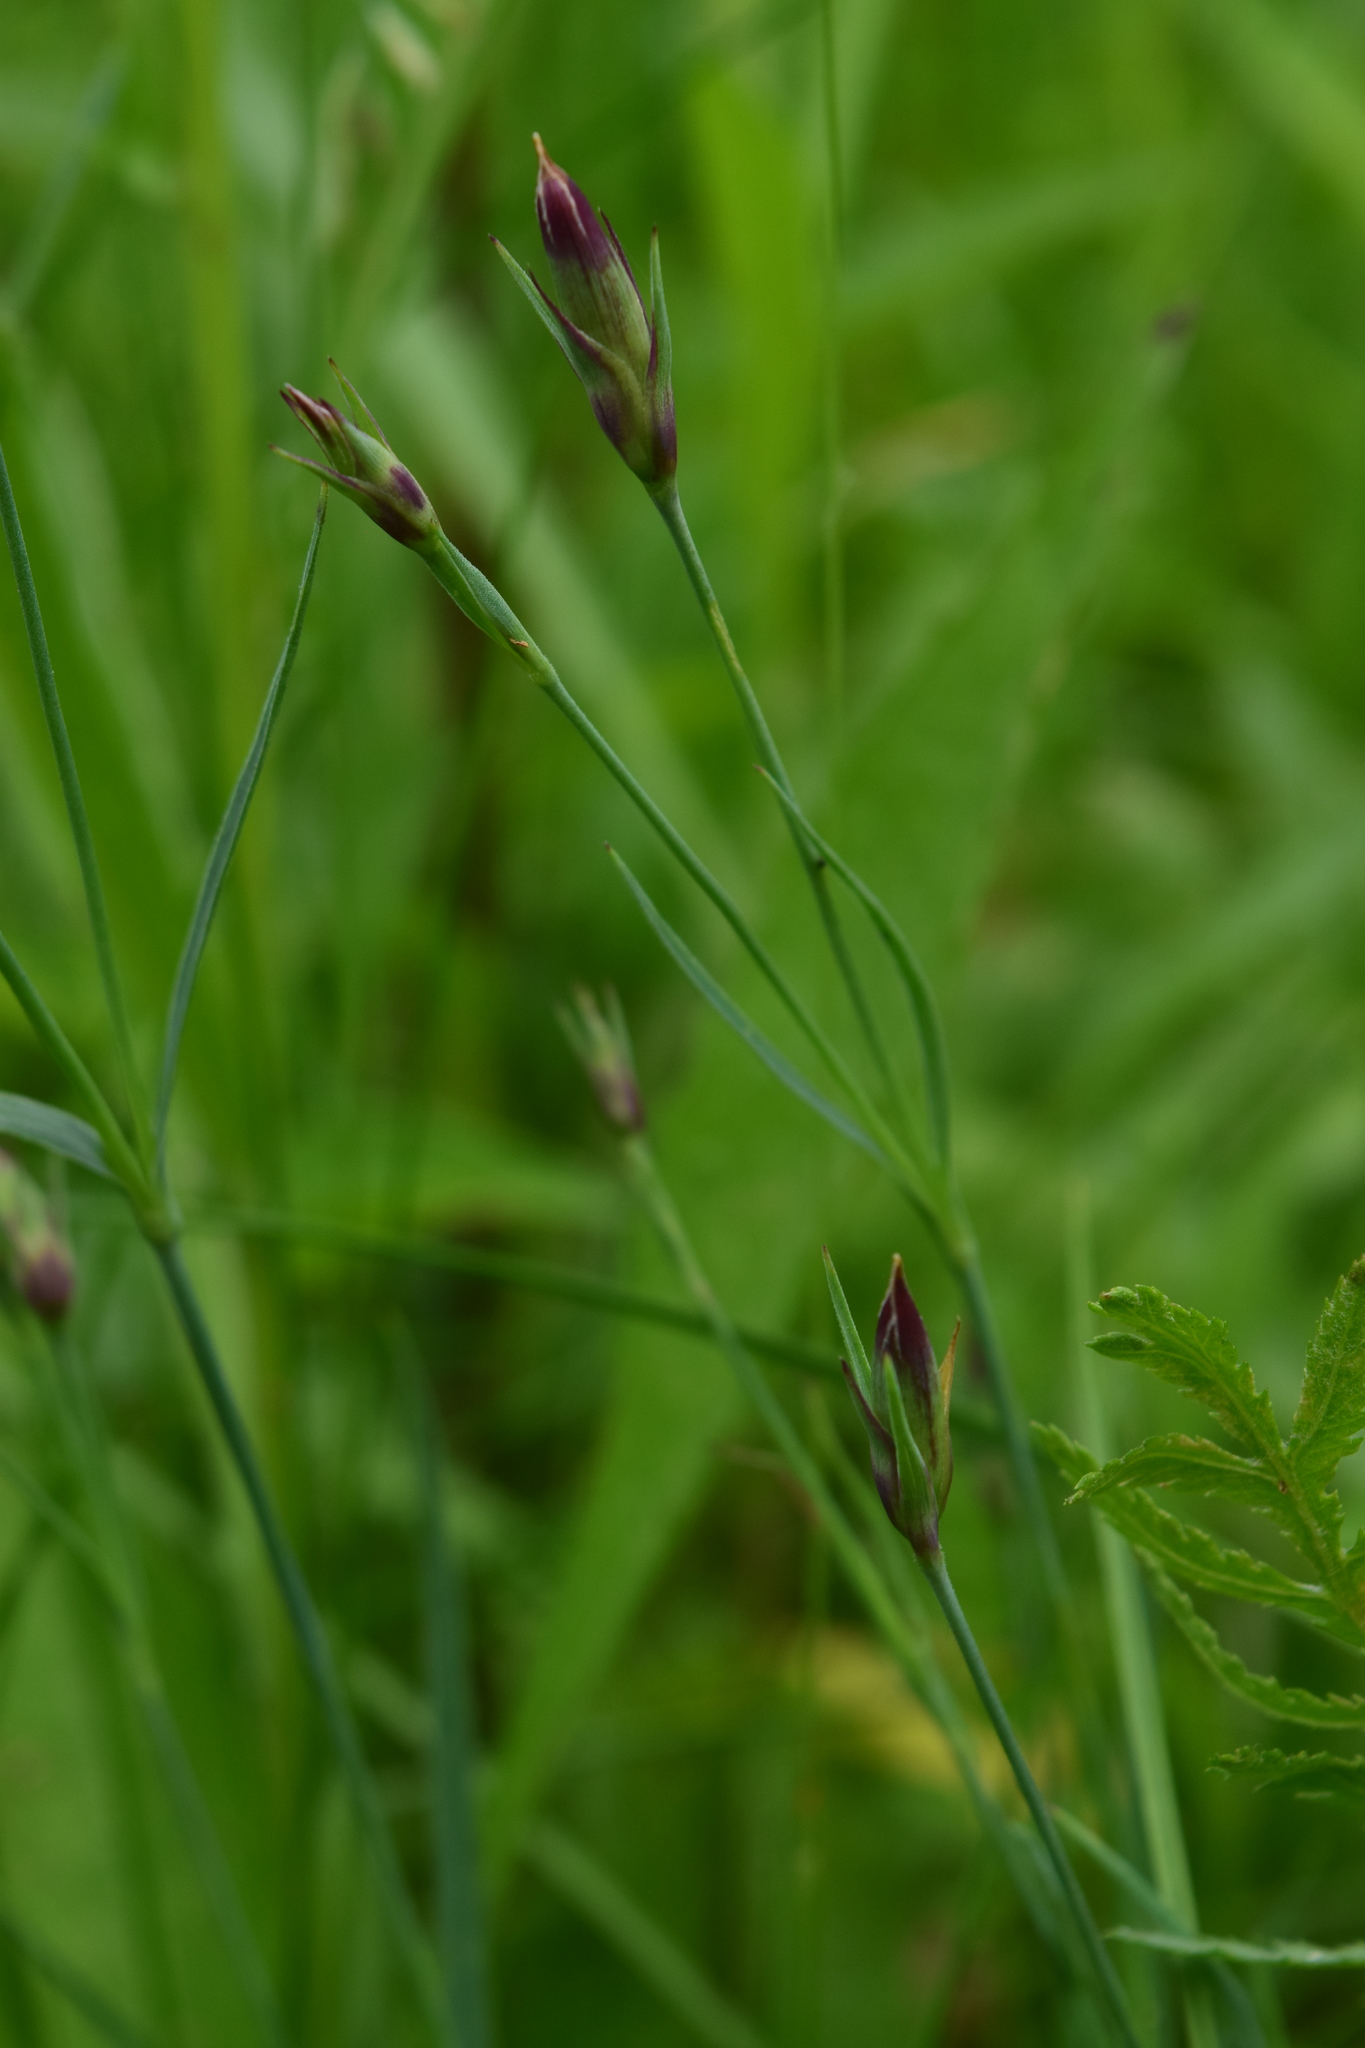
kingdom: Plantae
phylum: Tracheophyta
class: Magnoliopsida
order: Caryophyllales
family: Caryophyllaceae
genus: Dianthus
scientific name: Dianthus deltoides
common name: Maiden pink
